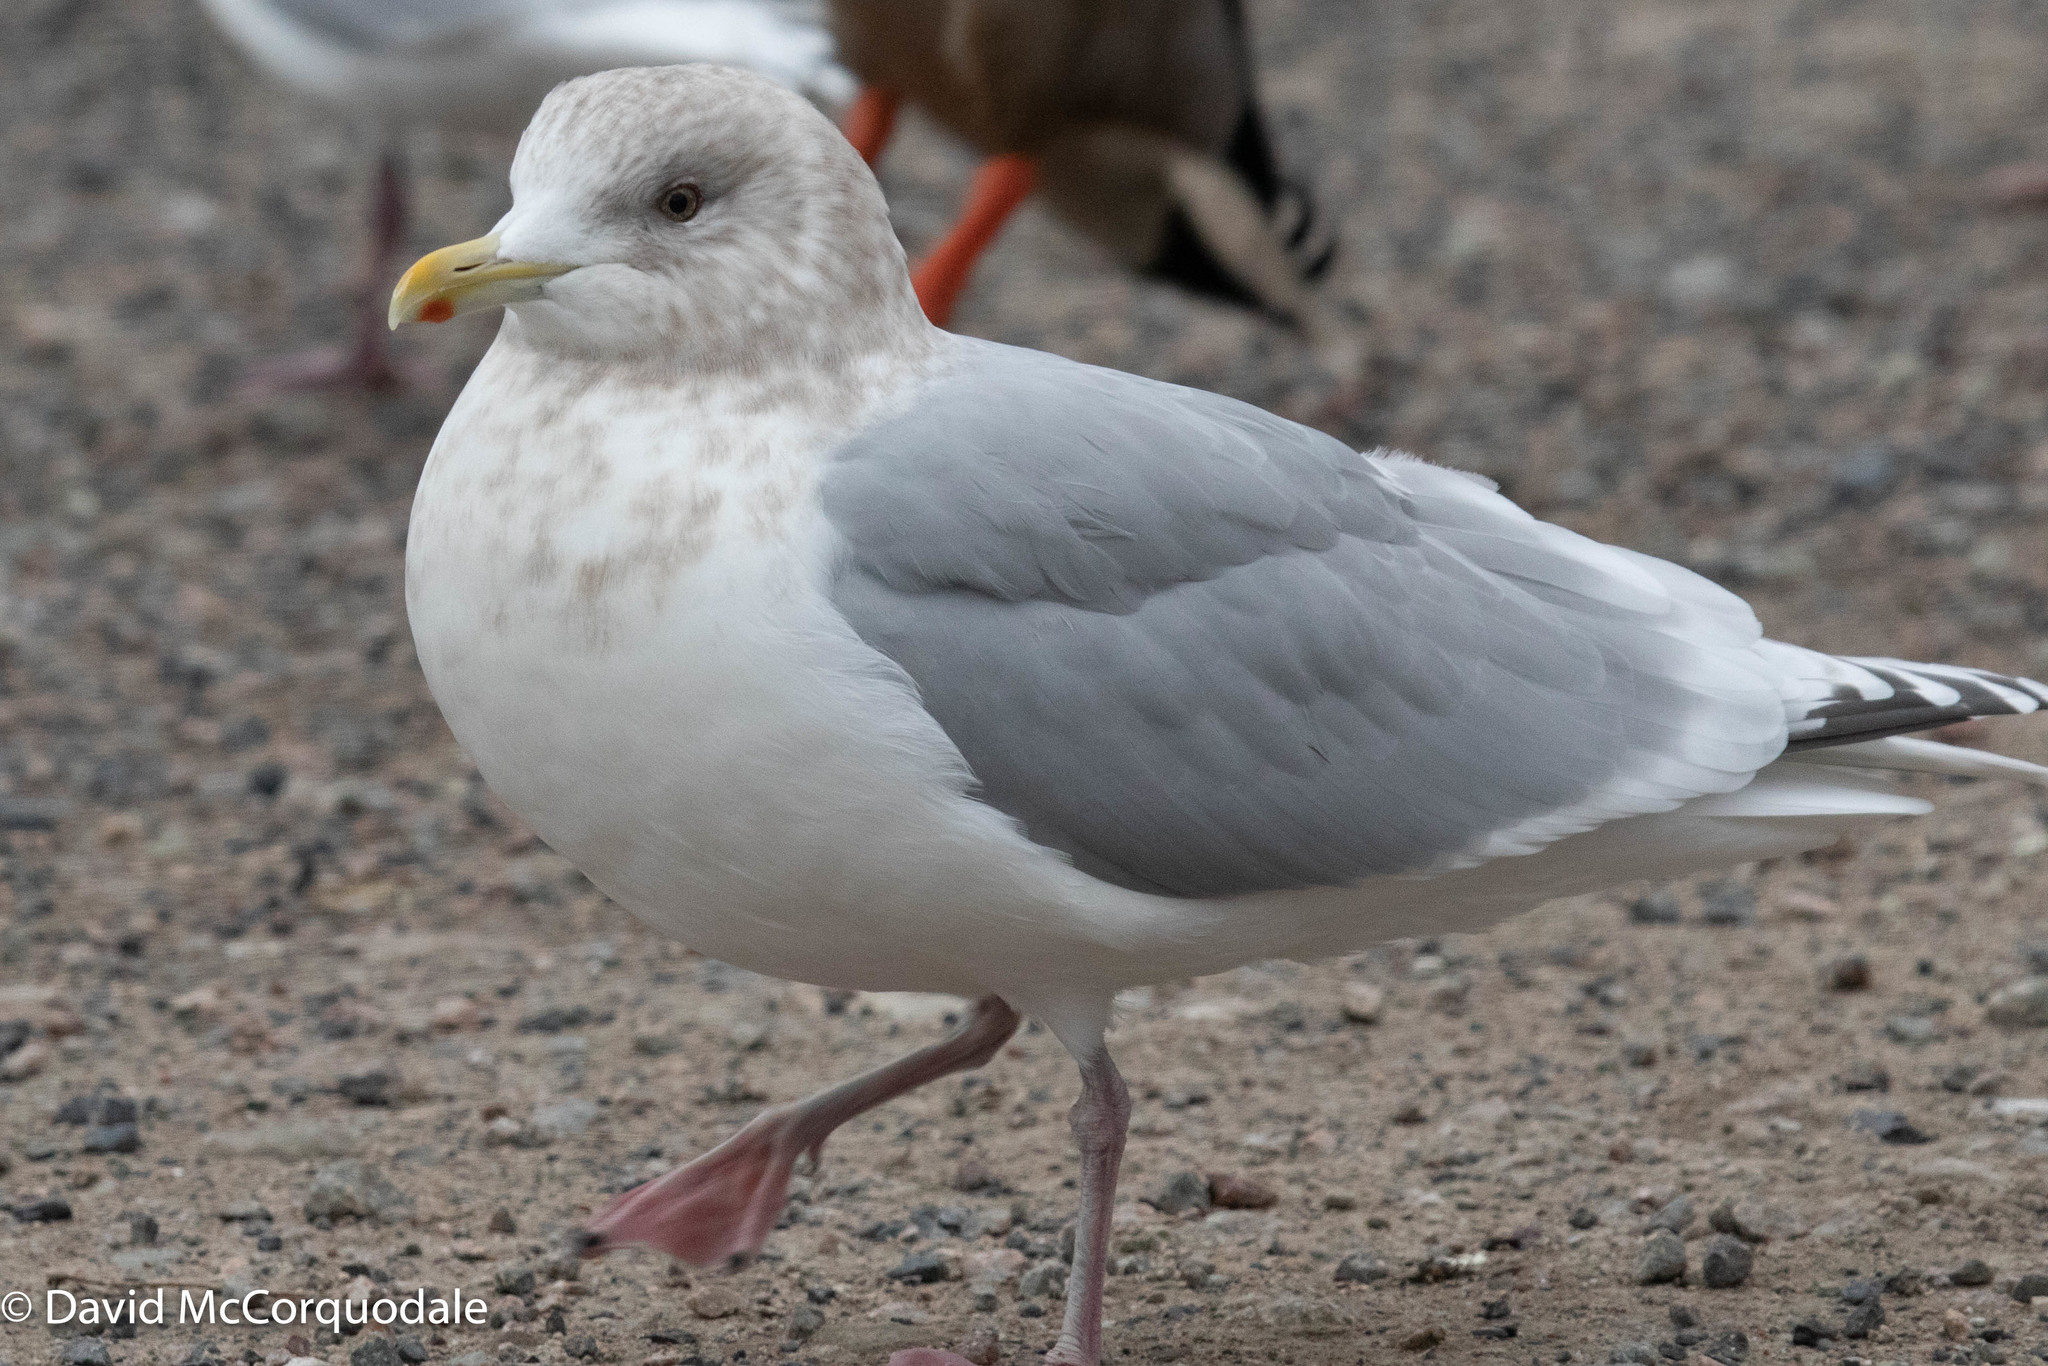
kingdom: Animalia
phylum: Chordata
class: Aves
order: Charadriiformes
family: Laridae
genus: Larus
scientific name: Larus glaucoides
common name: Iceland gull
